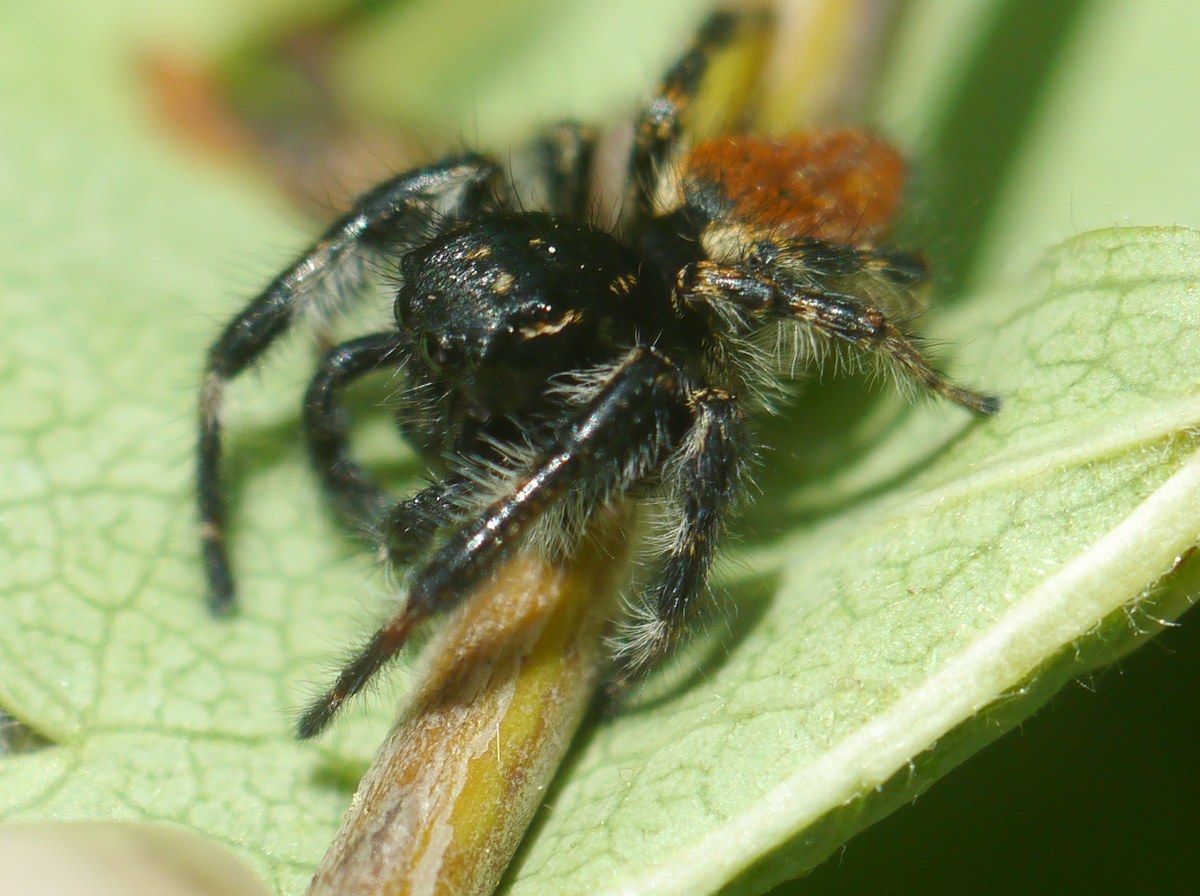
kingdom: Animalia
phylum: Arthropoda
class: Arachnida
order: Araneae
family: Salticidae
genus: Carrhotus
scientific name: Carrhotus xanthogramma
